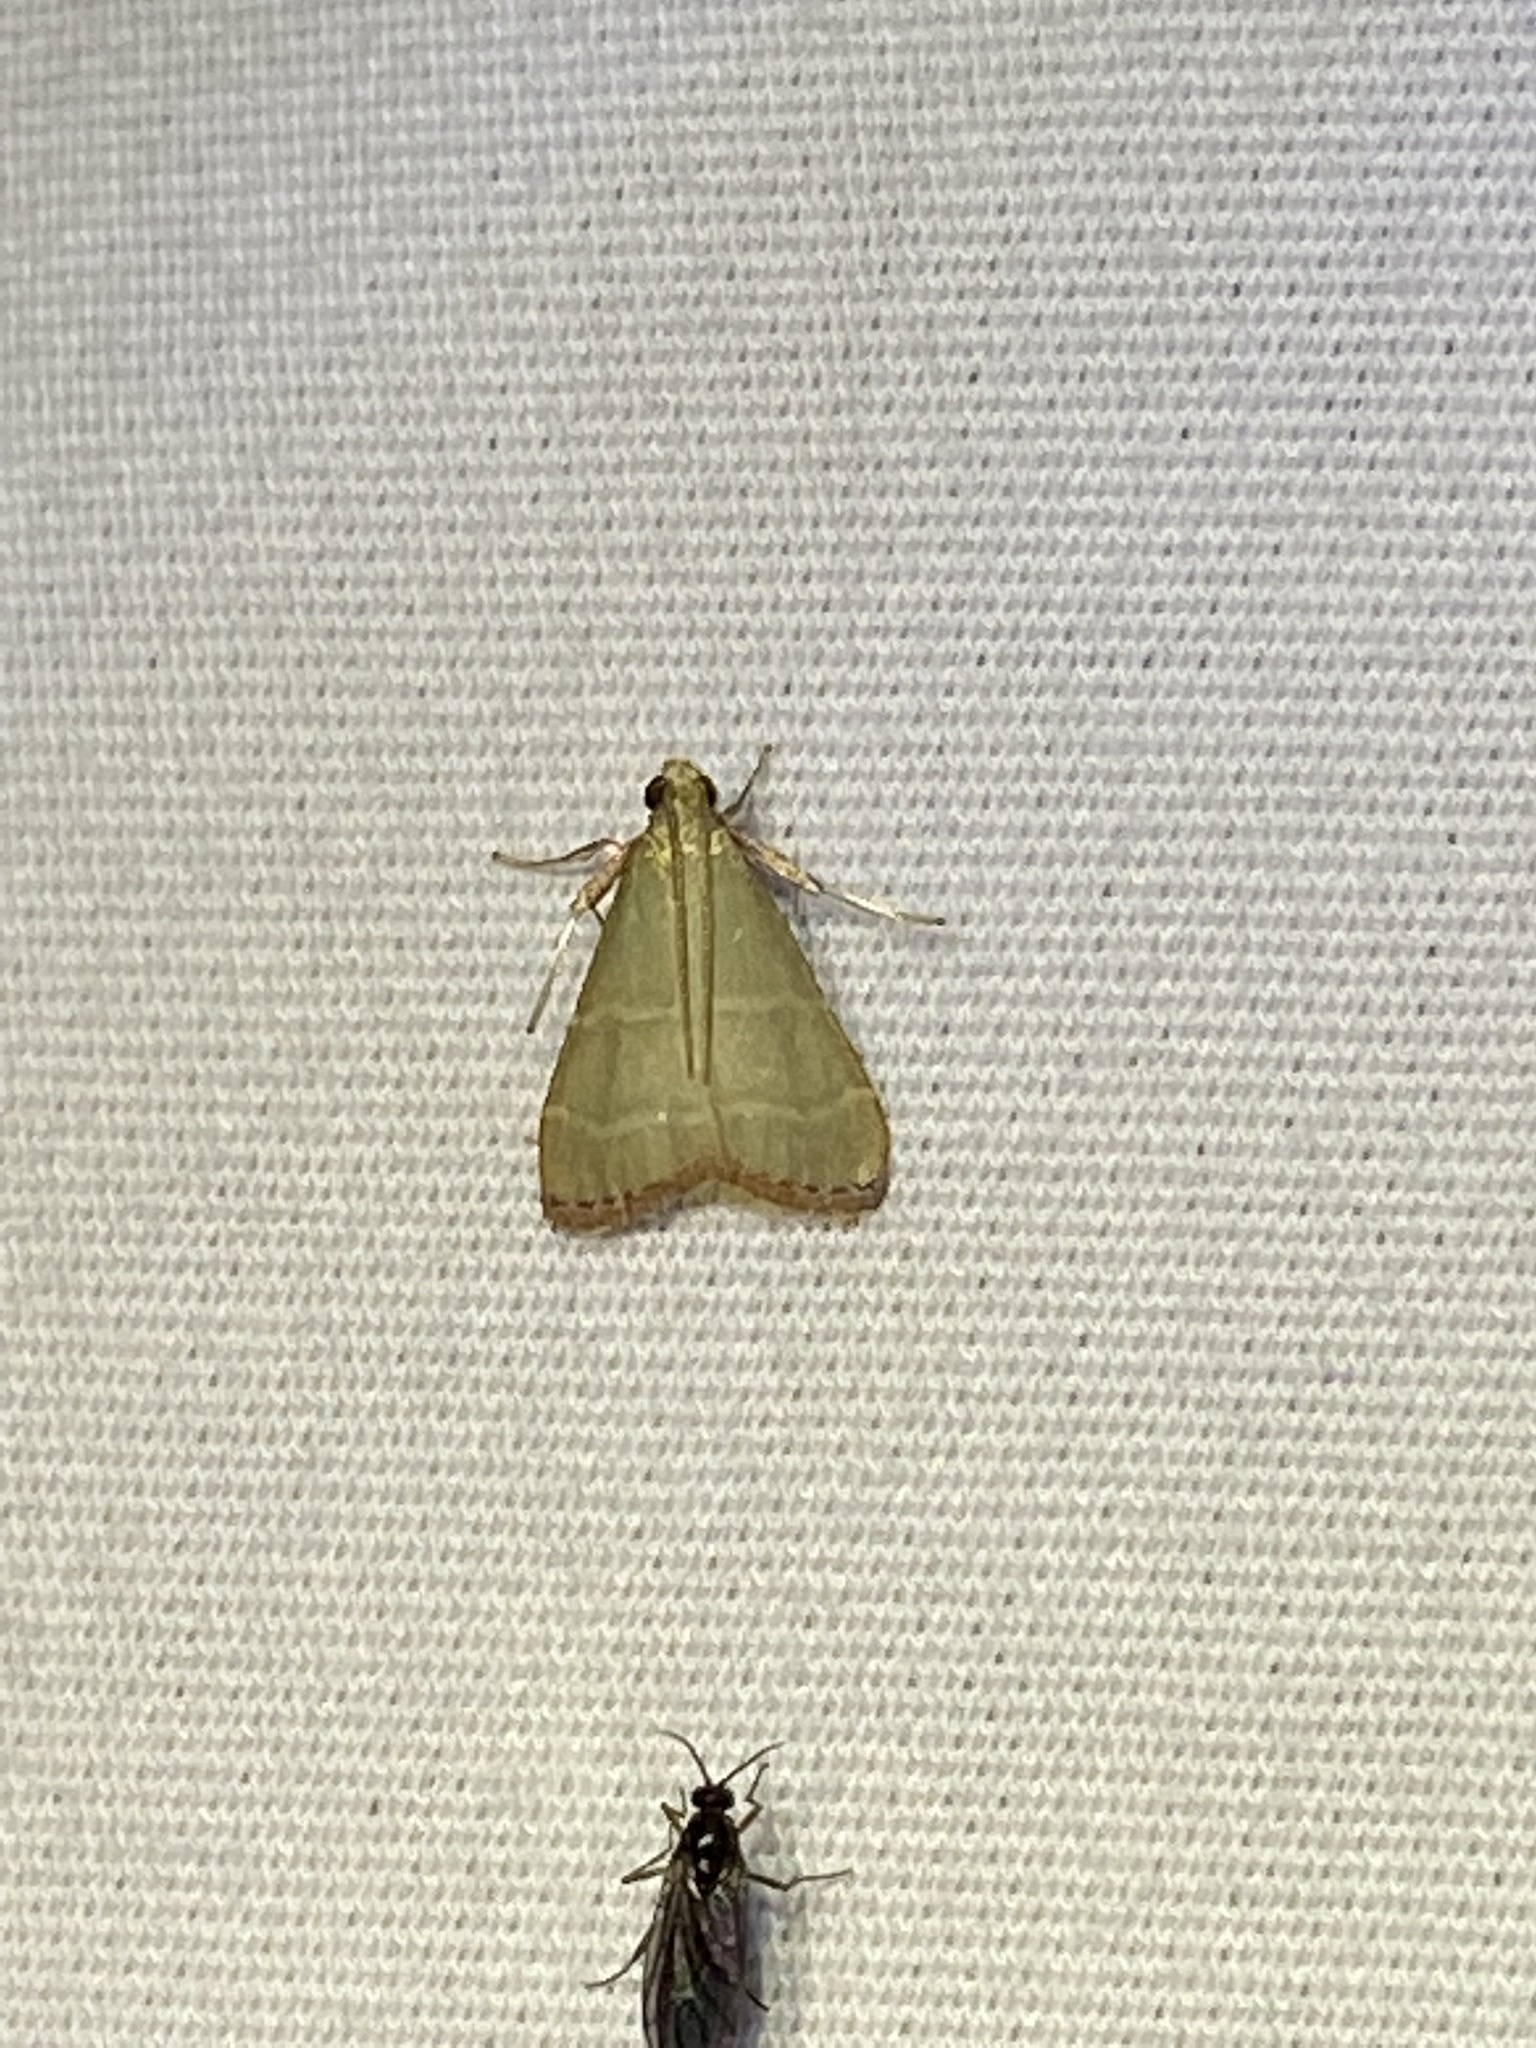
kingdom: Animalia
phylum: Arthropoda
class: Insecta
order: Lepidoptera
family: Pyralidae
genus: Arta
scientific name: Arta olivalis
